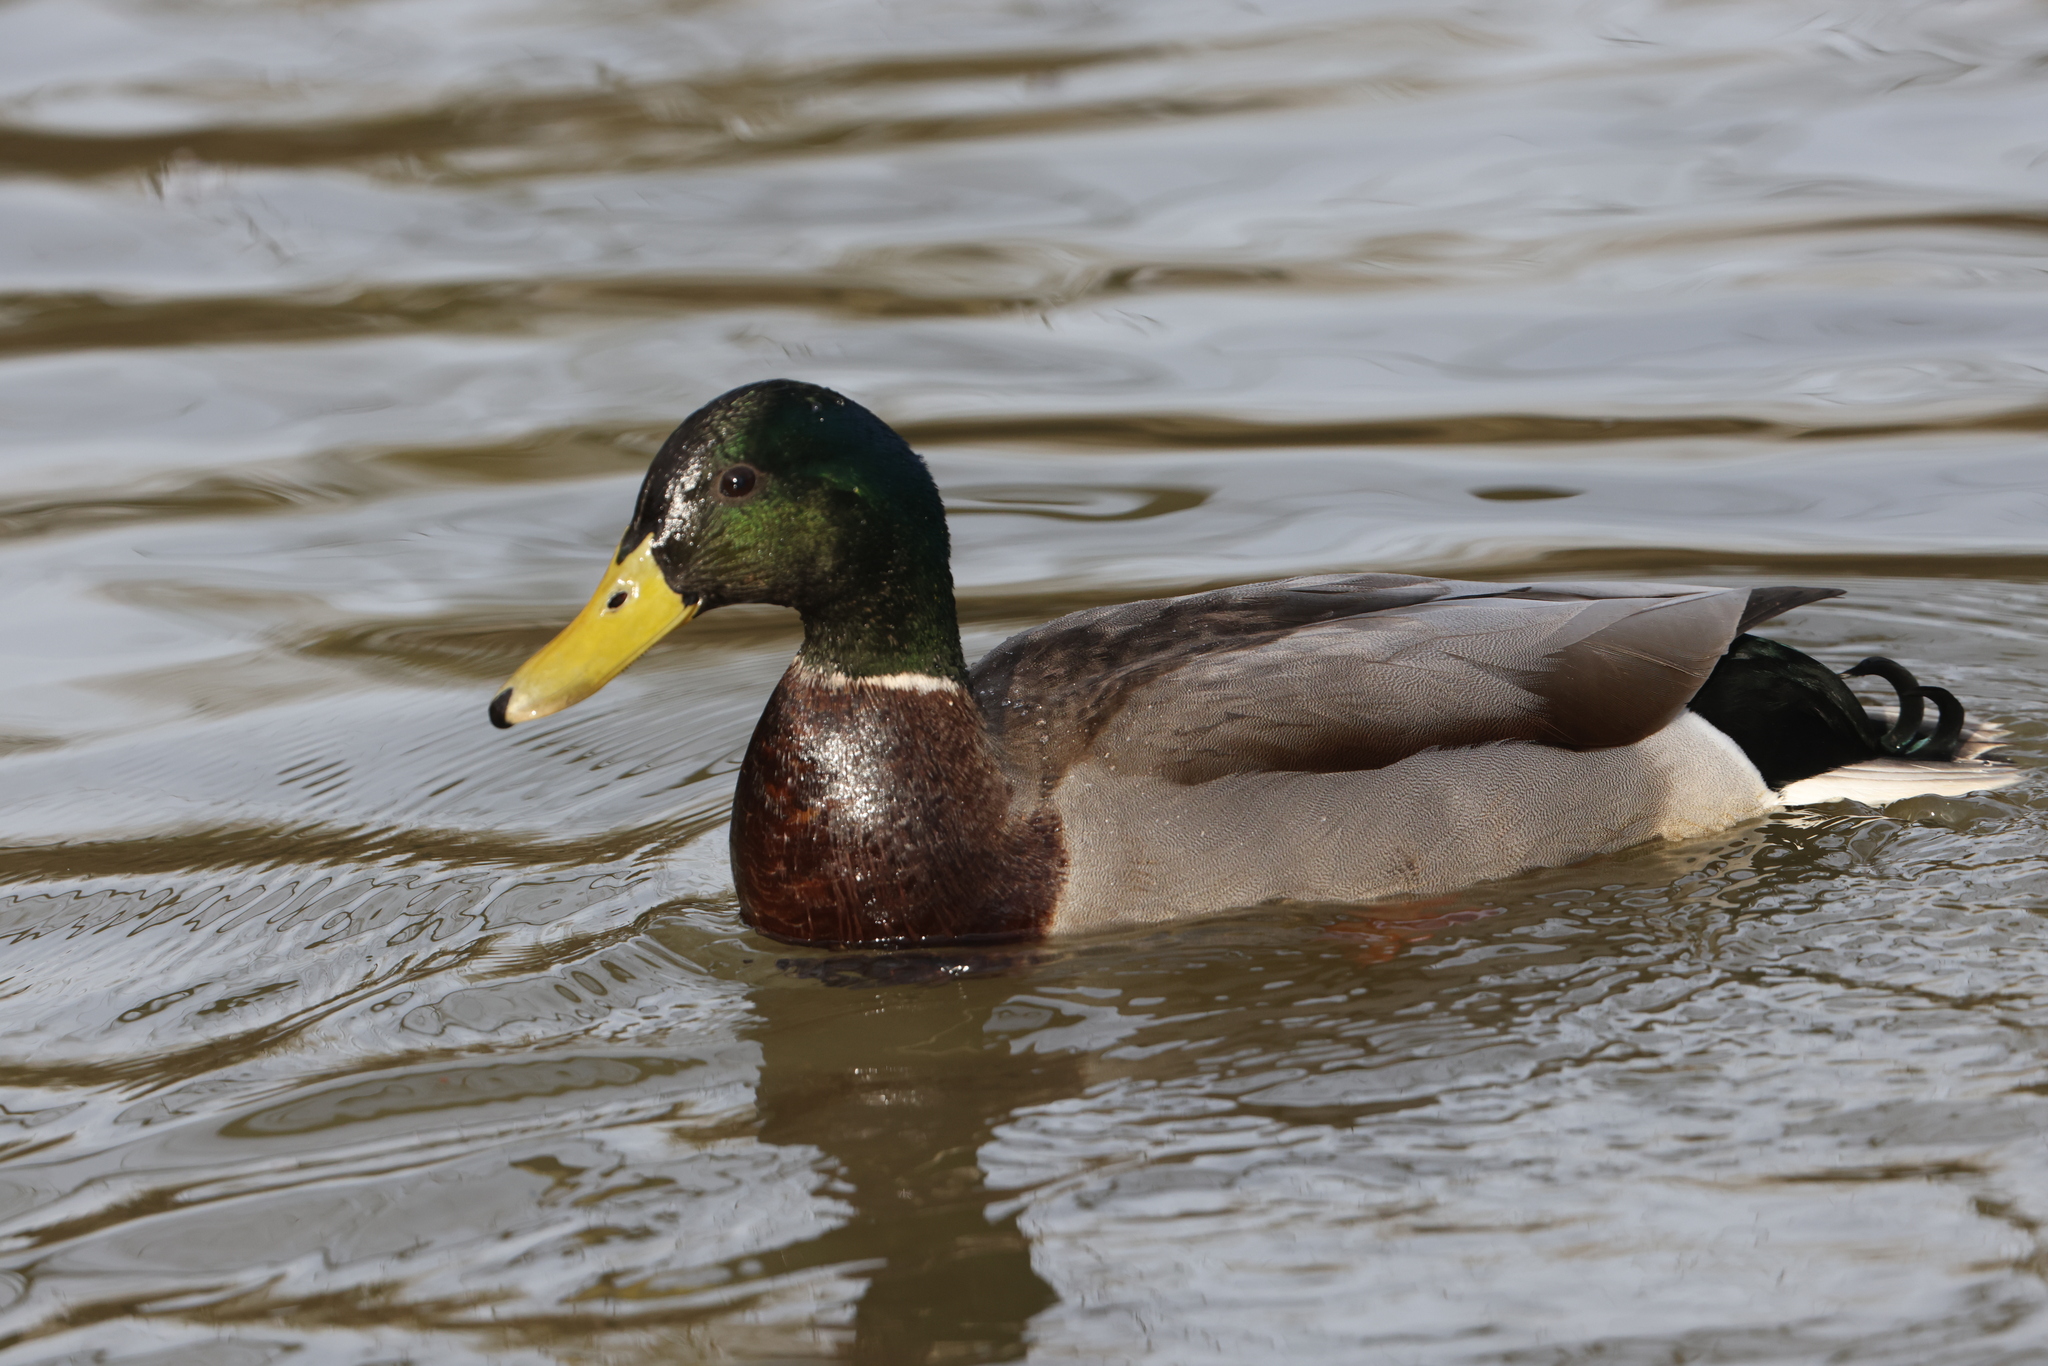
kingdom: Animalia
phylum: Chordata
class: Aves
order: Anseriformes
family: Anatidae
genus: Anas
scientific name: Anas platyrhynchos
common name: Mallard
